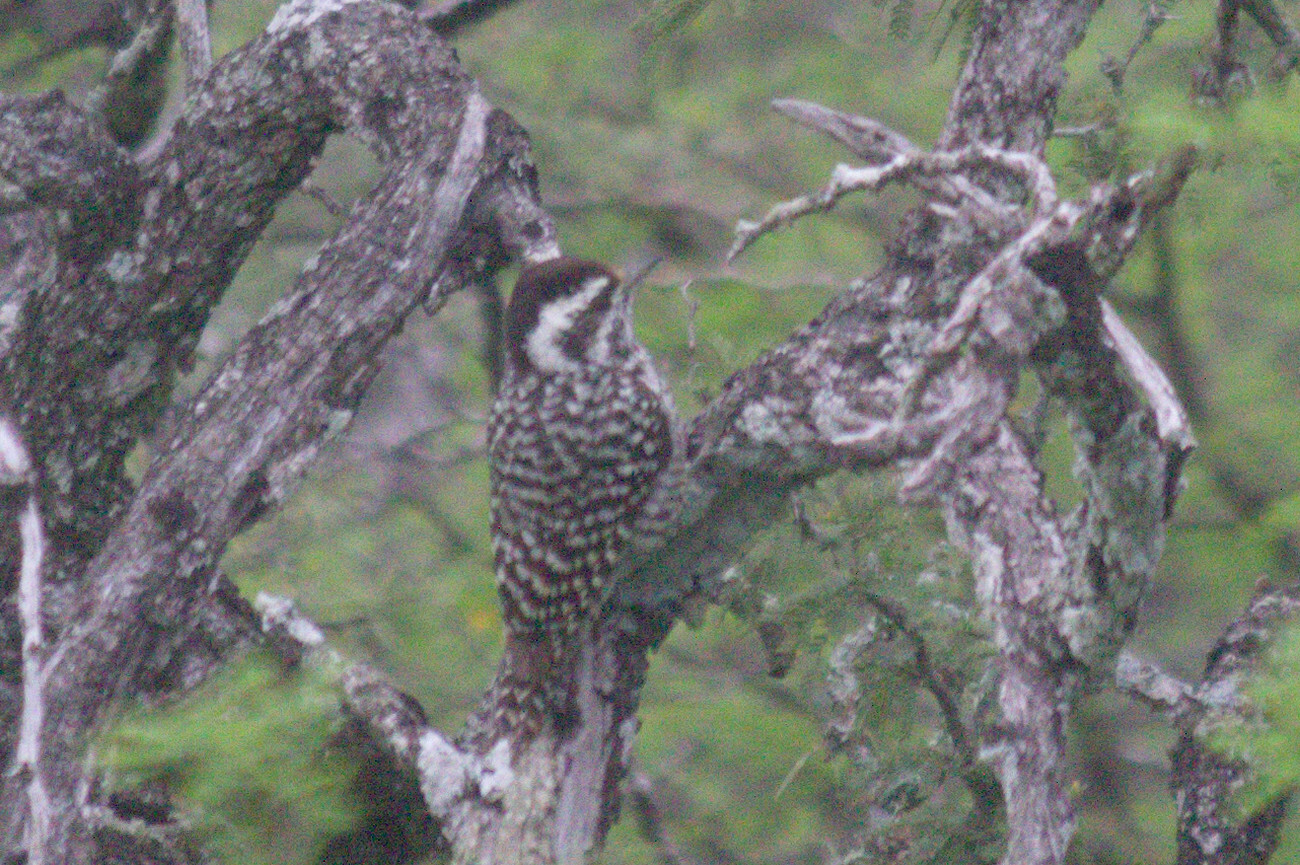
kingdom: Animalia
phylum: Chordata
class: Aves
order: Piciformes
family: Picidae
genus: Veniliornis
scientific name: Veniliornis mixtus
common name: Checkered woodpecker
